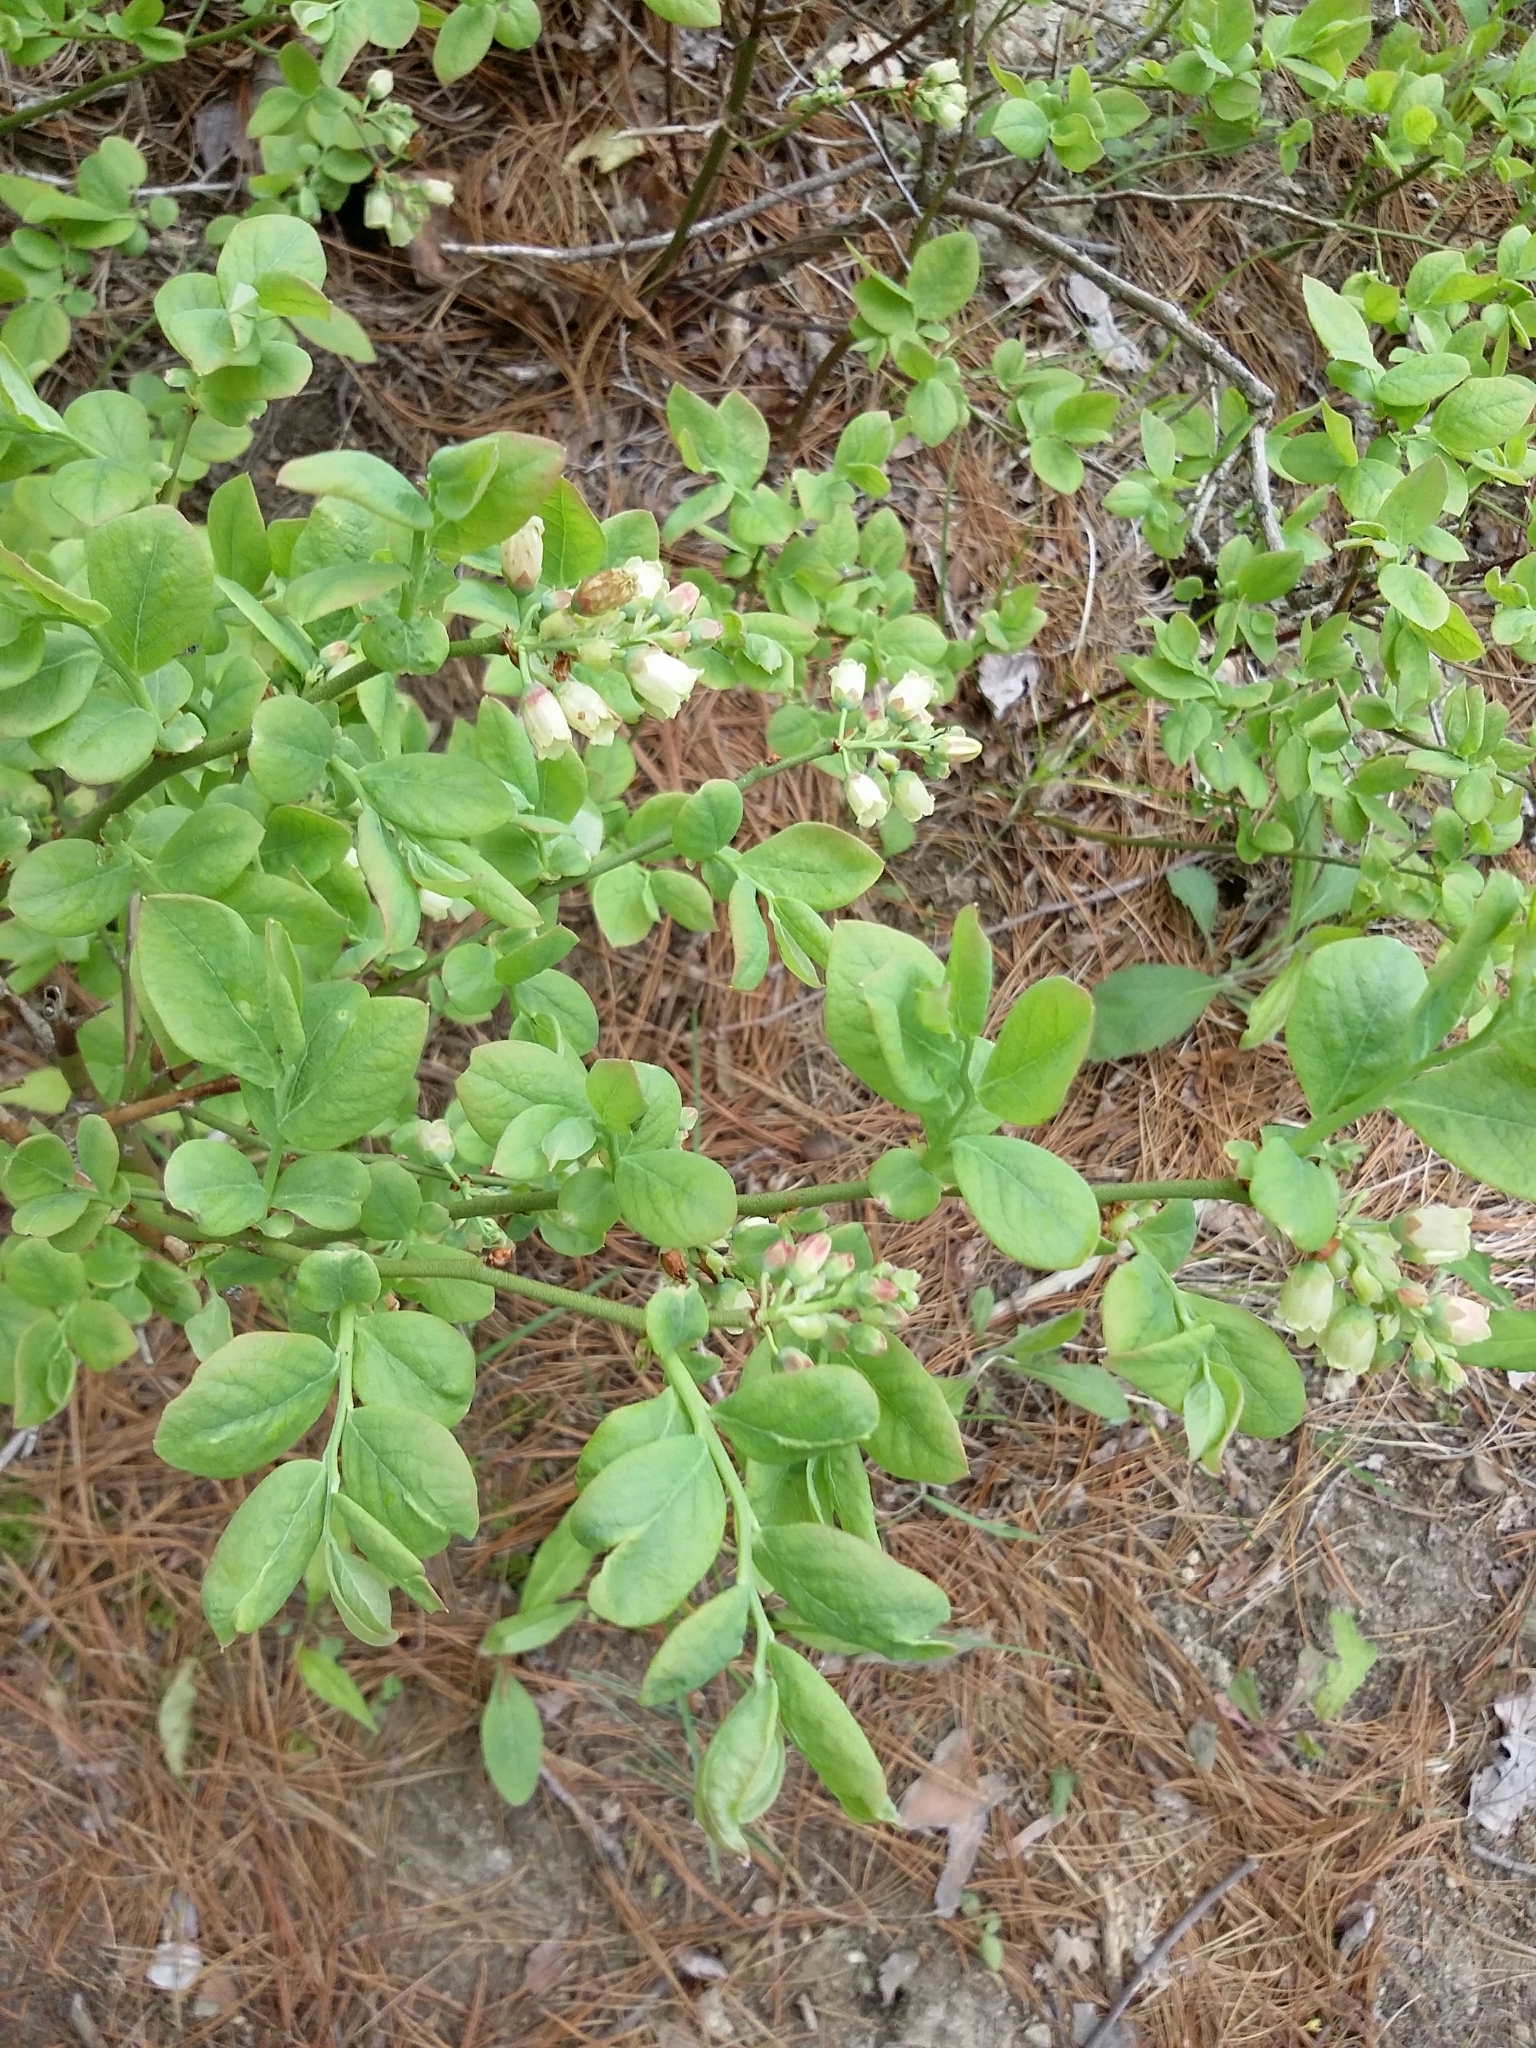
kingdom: Plantae
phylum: Tracheophyta
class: Magnoliopsida
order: Ericales
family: Ericaceae
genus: Vaccinium
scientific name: Vaccinium pallidum
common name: Blue ridge blueberry
